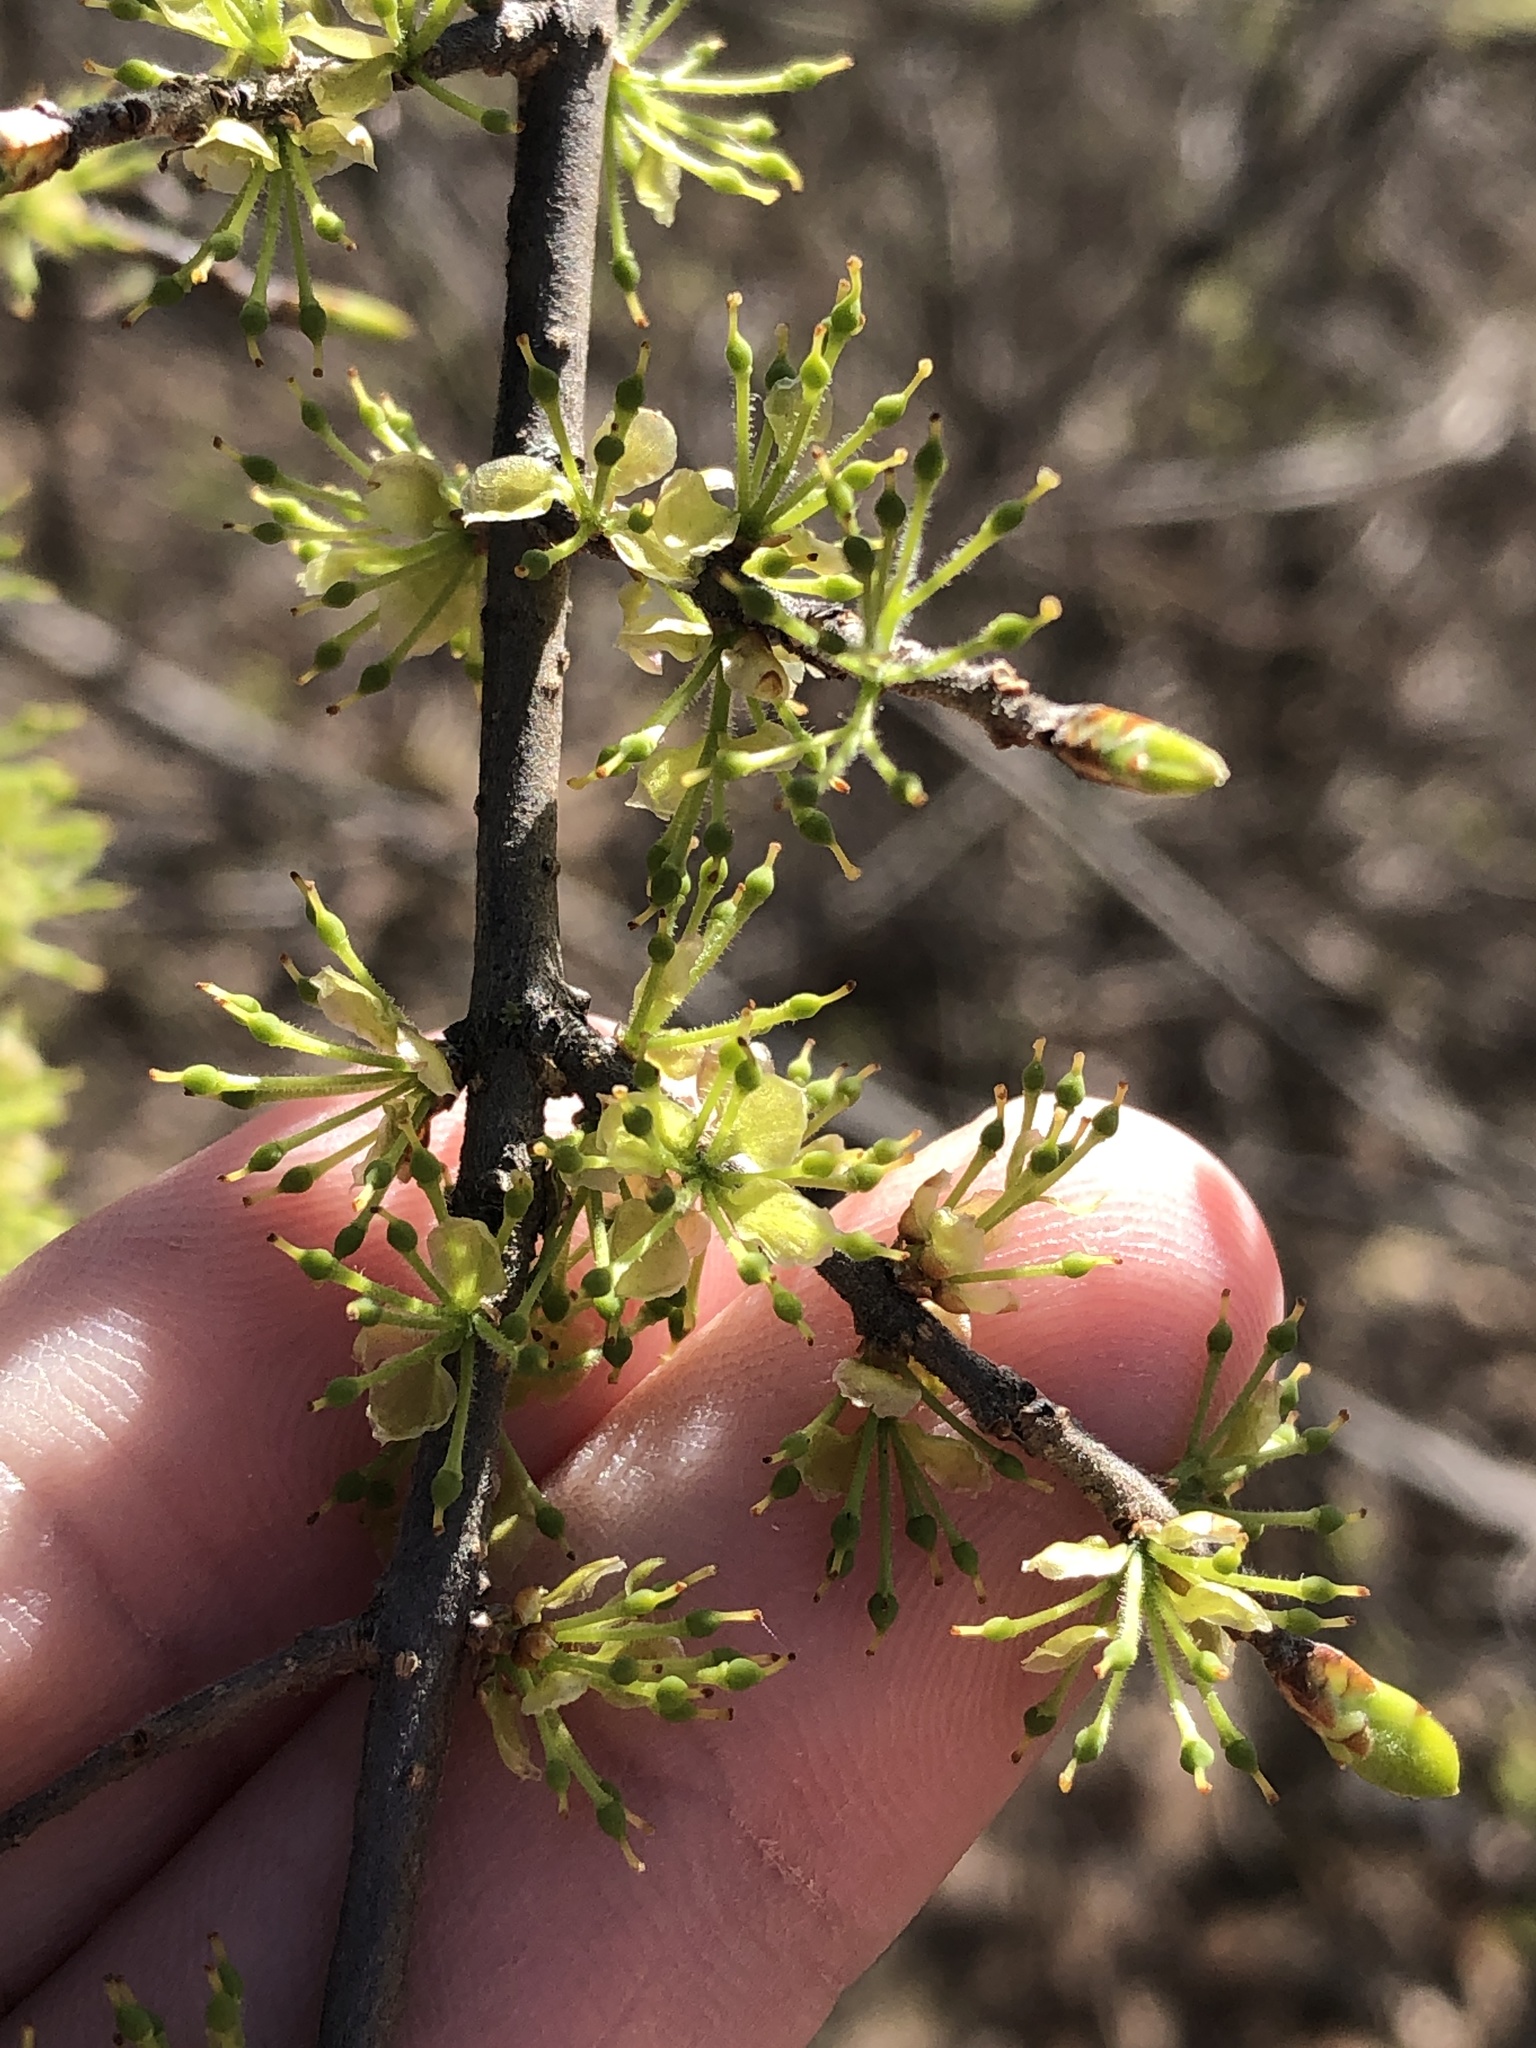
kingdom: Plantae
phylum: Tracheophyta
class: Magnoliopsida
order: Lamiales
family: Oleaceae
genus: Forestiera
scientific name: Forestiera pubescens
